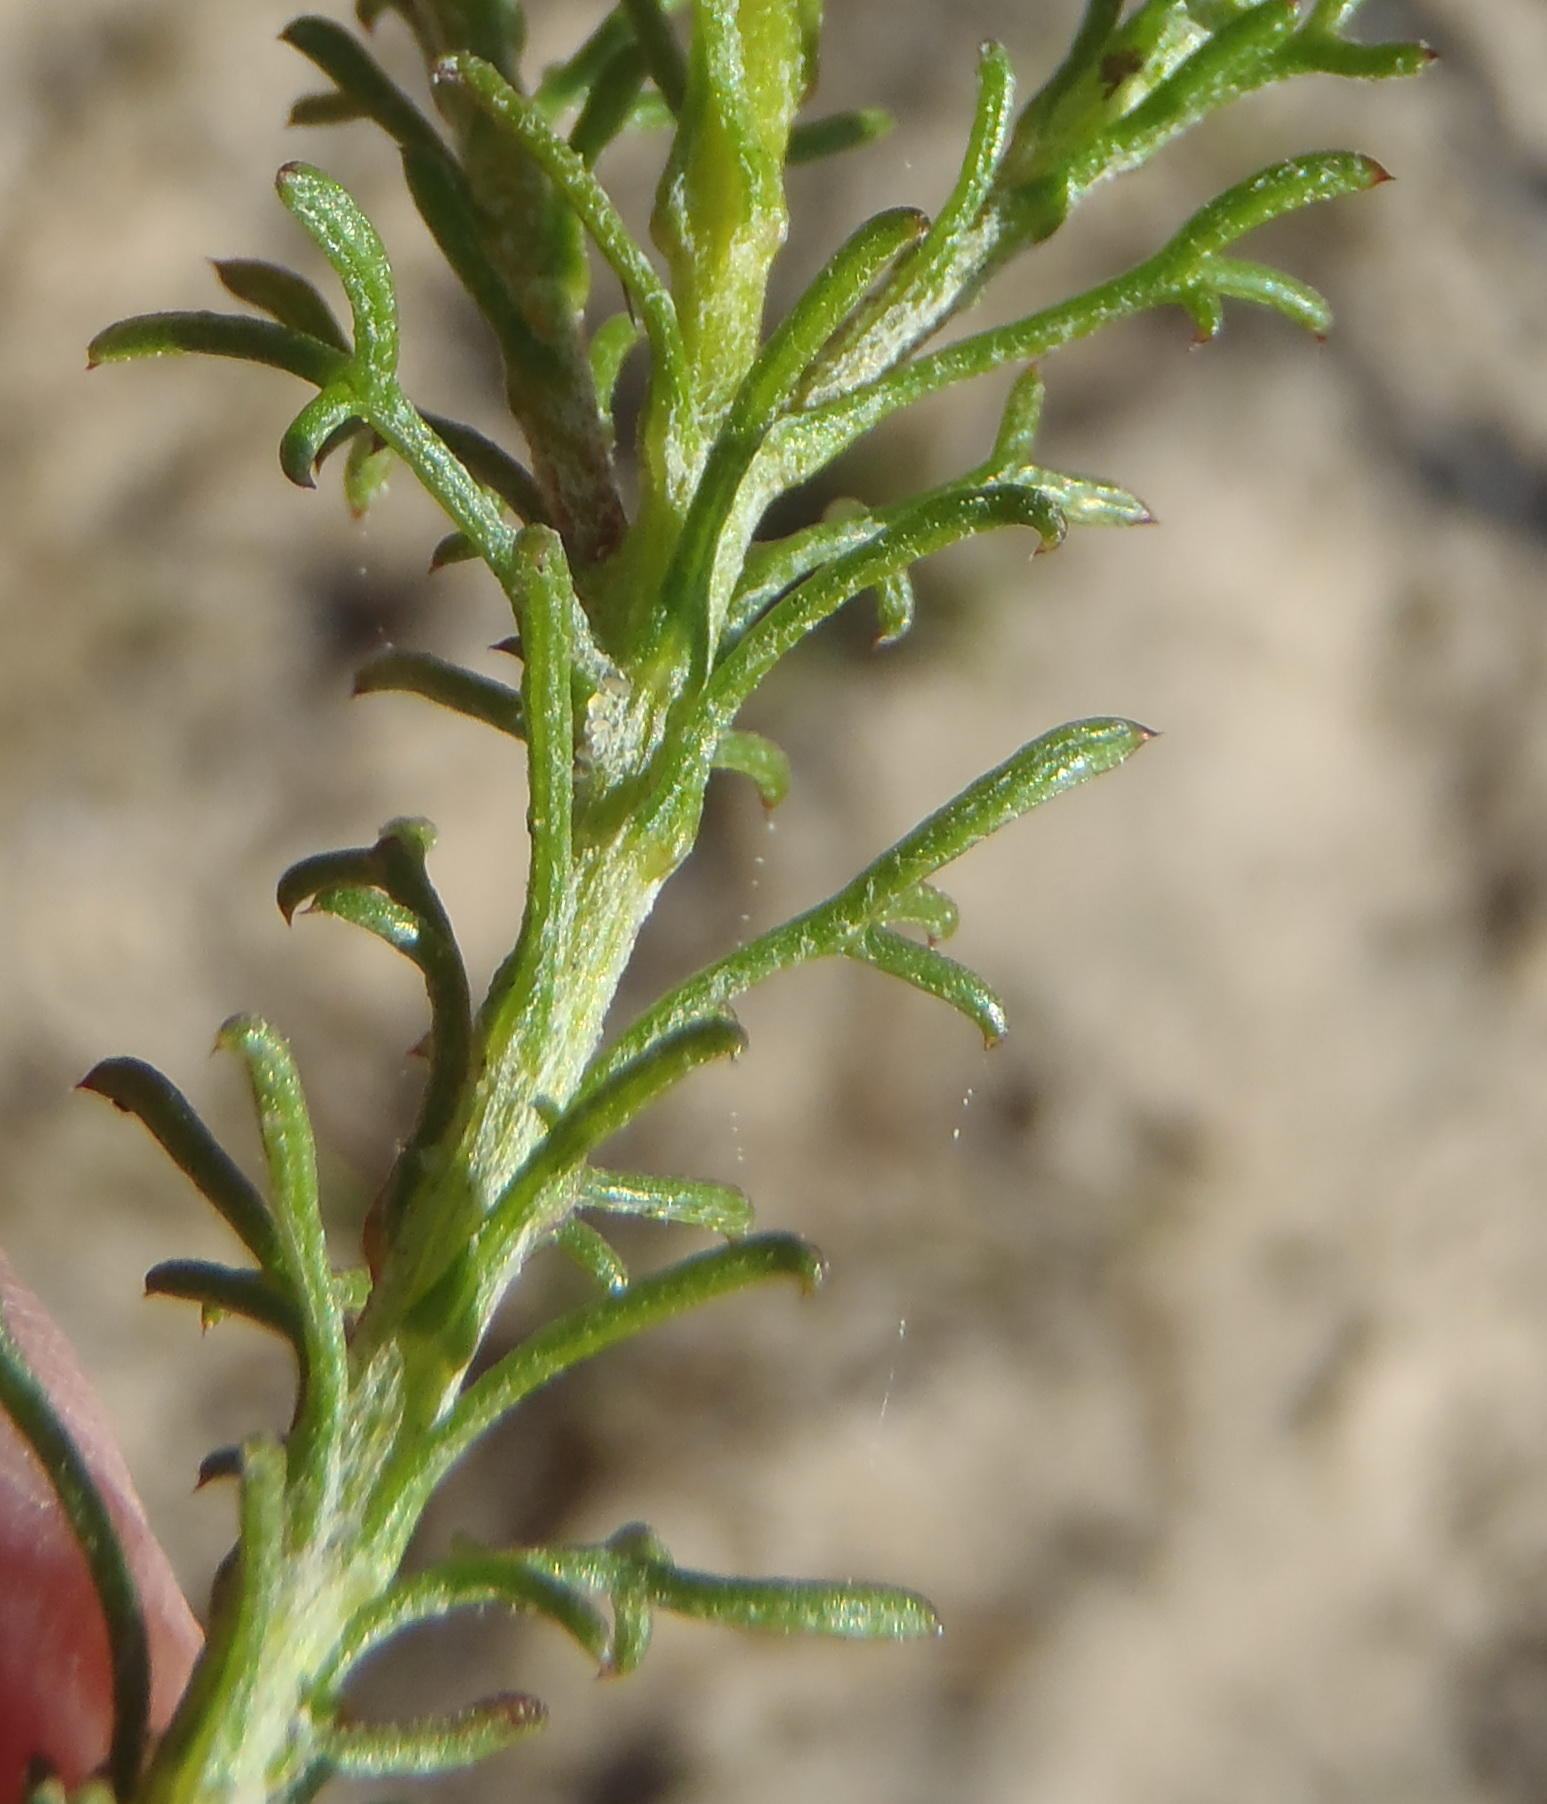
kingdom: Plantae
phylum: Tracheophyta
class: Magnoliopsida
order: Asterales
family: Asteraceae
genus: Ursinia
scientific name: Ursinia trifida
